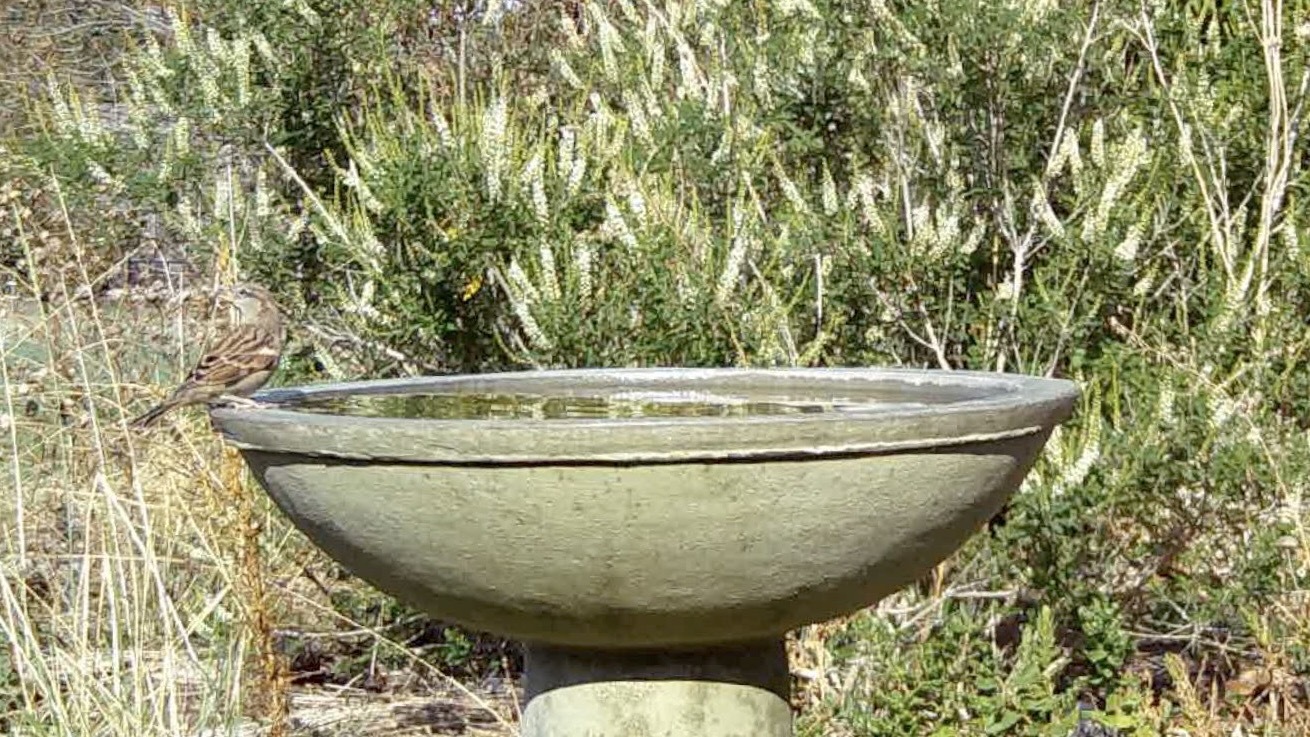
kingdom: Animalia
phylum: Chordata
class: Aves
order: Passeriformes
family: Passeridae
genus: Passer
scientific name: Passer domesticus
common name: House sparrow
